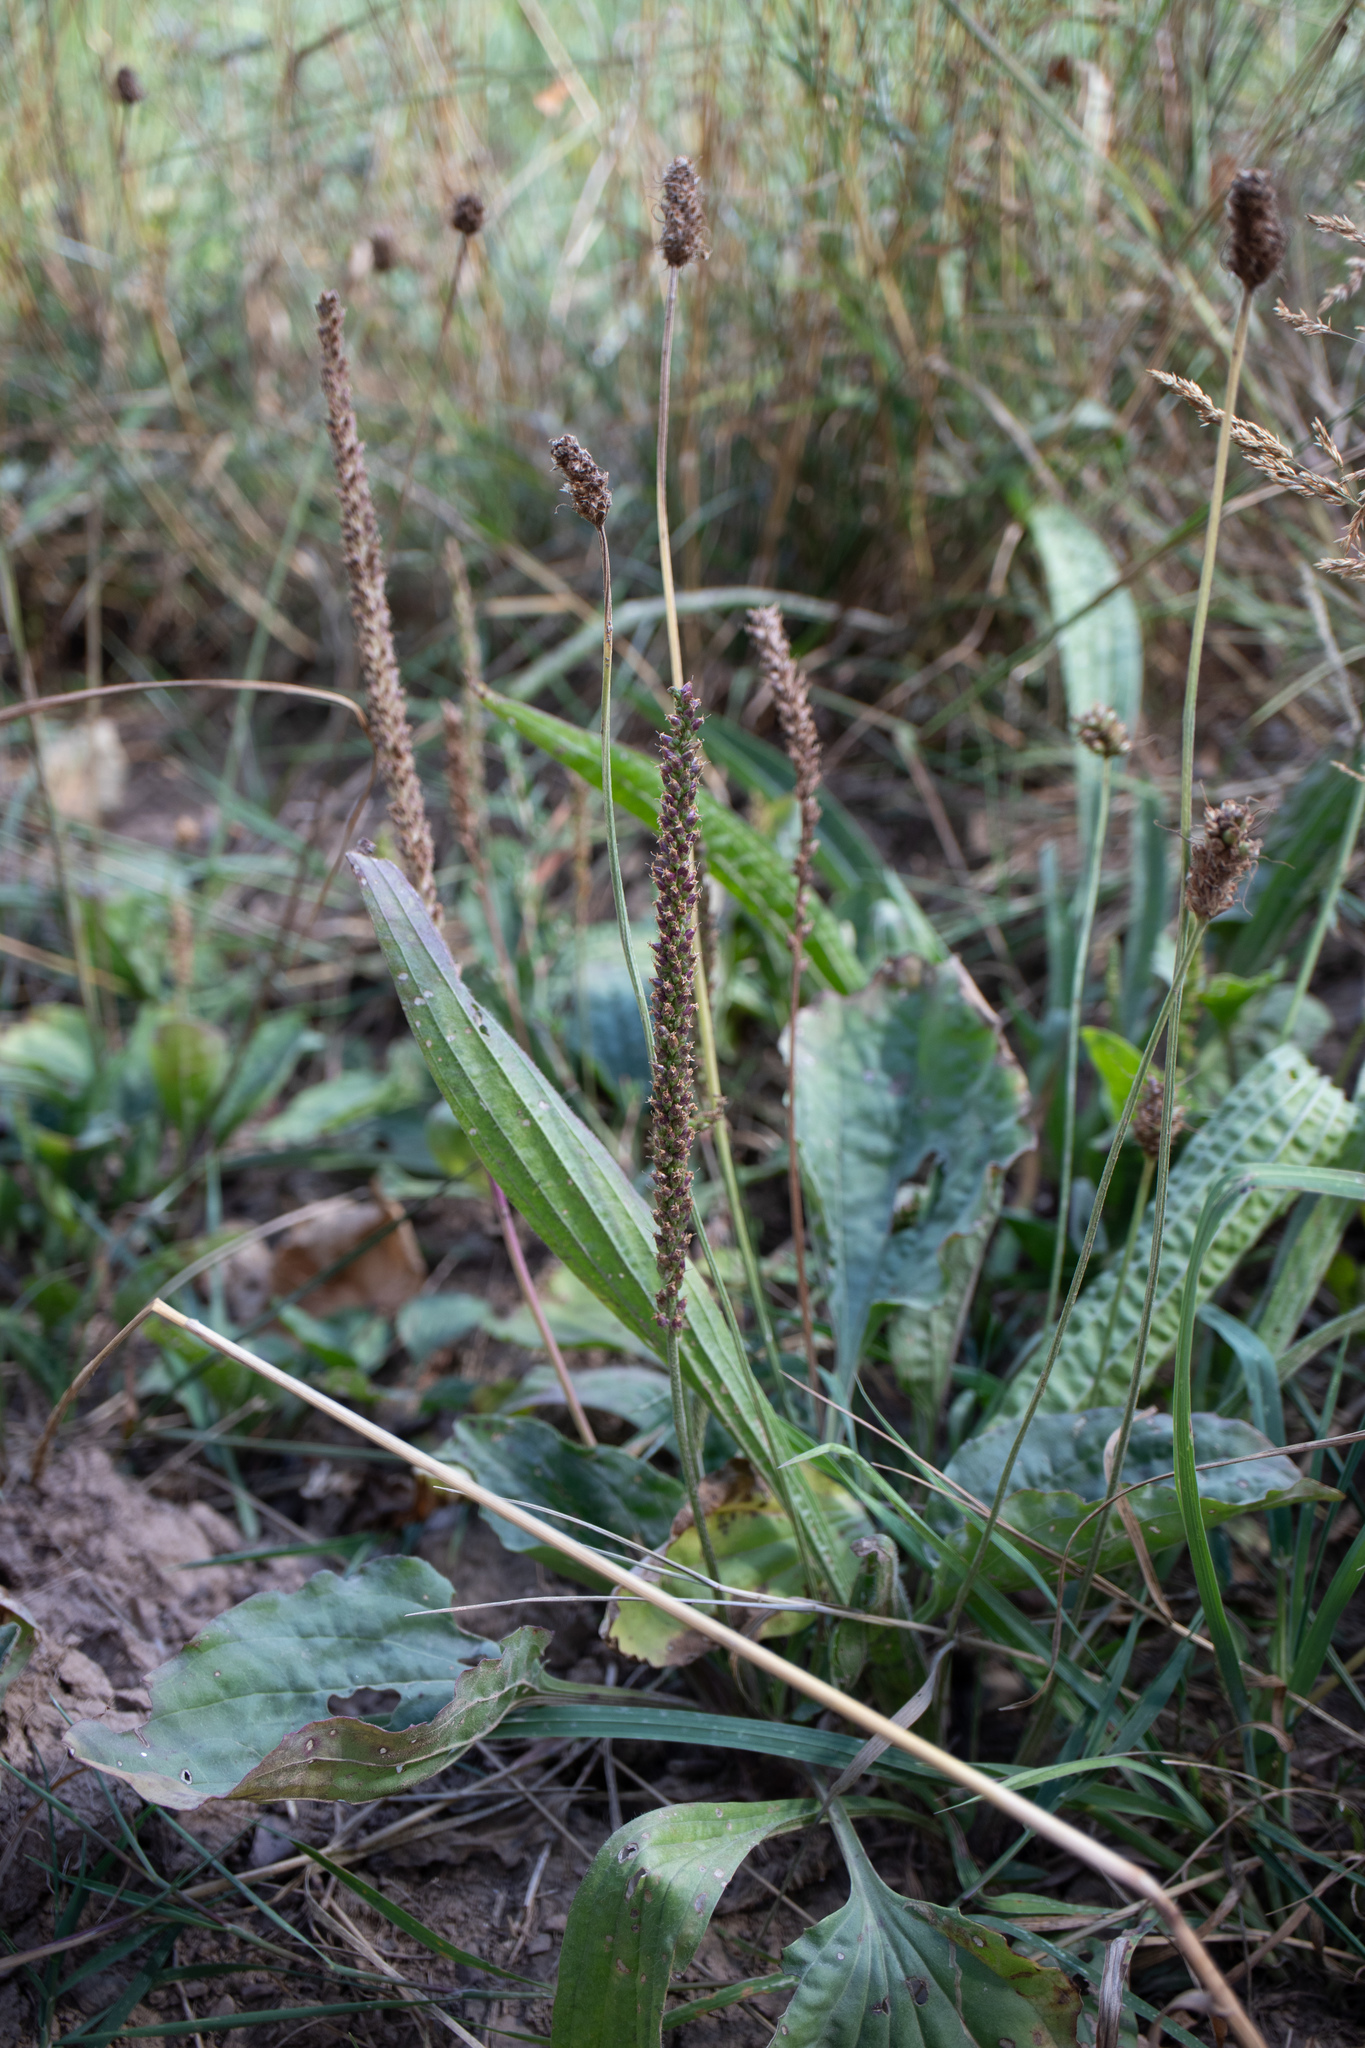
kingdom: Plantae
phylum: Tracheophyta
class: Magnoliopsida
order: Lamiales
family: Plantaginaceae
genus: Plantago
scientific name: Plantago lanceolata
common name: Ribwort plantain
